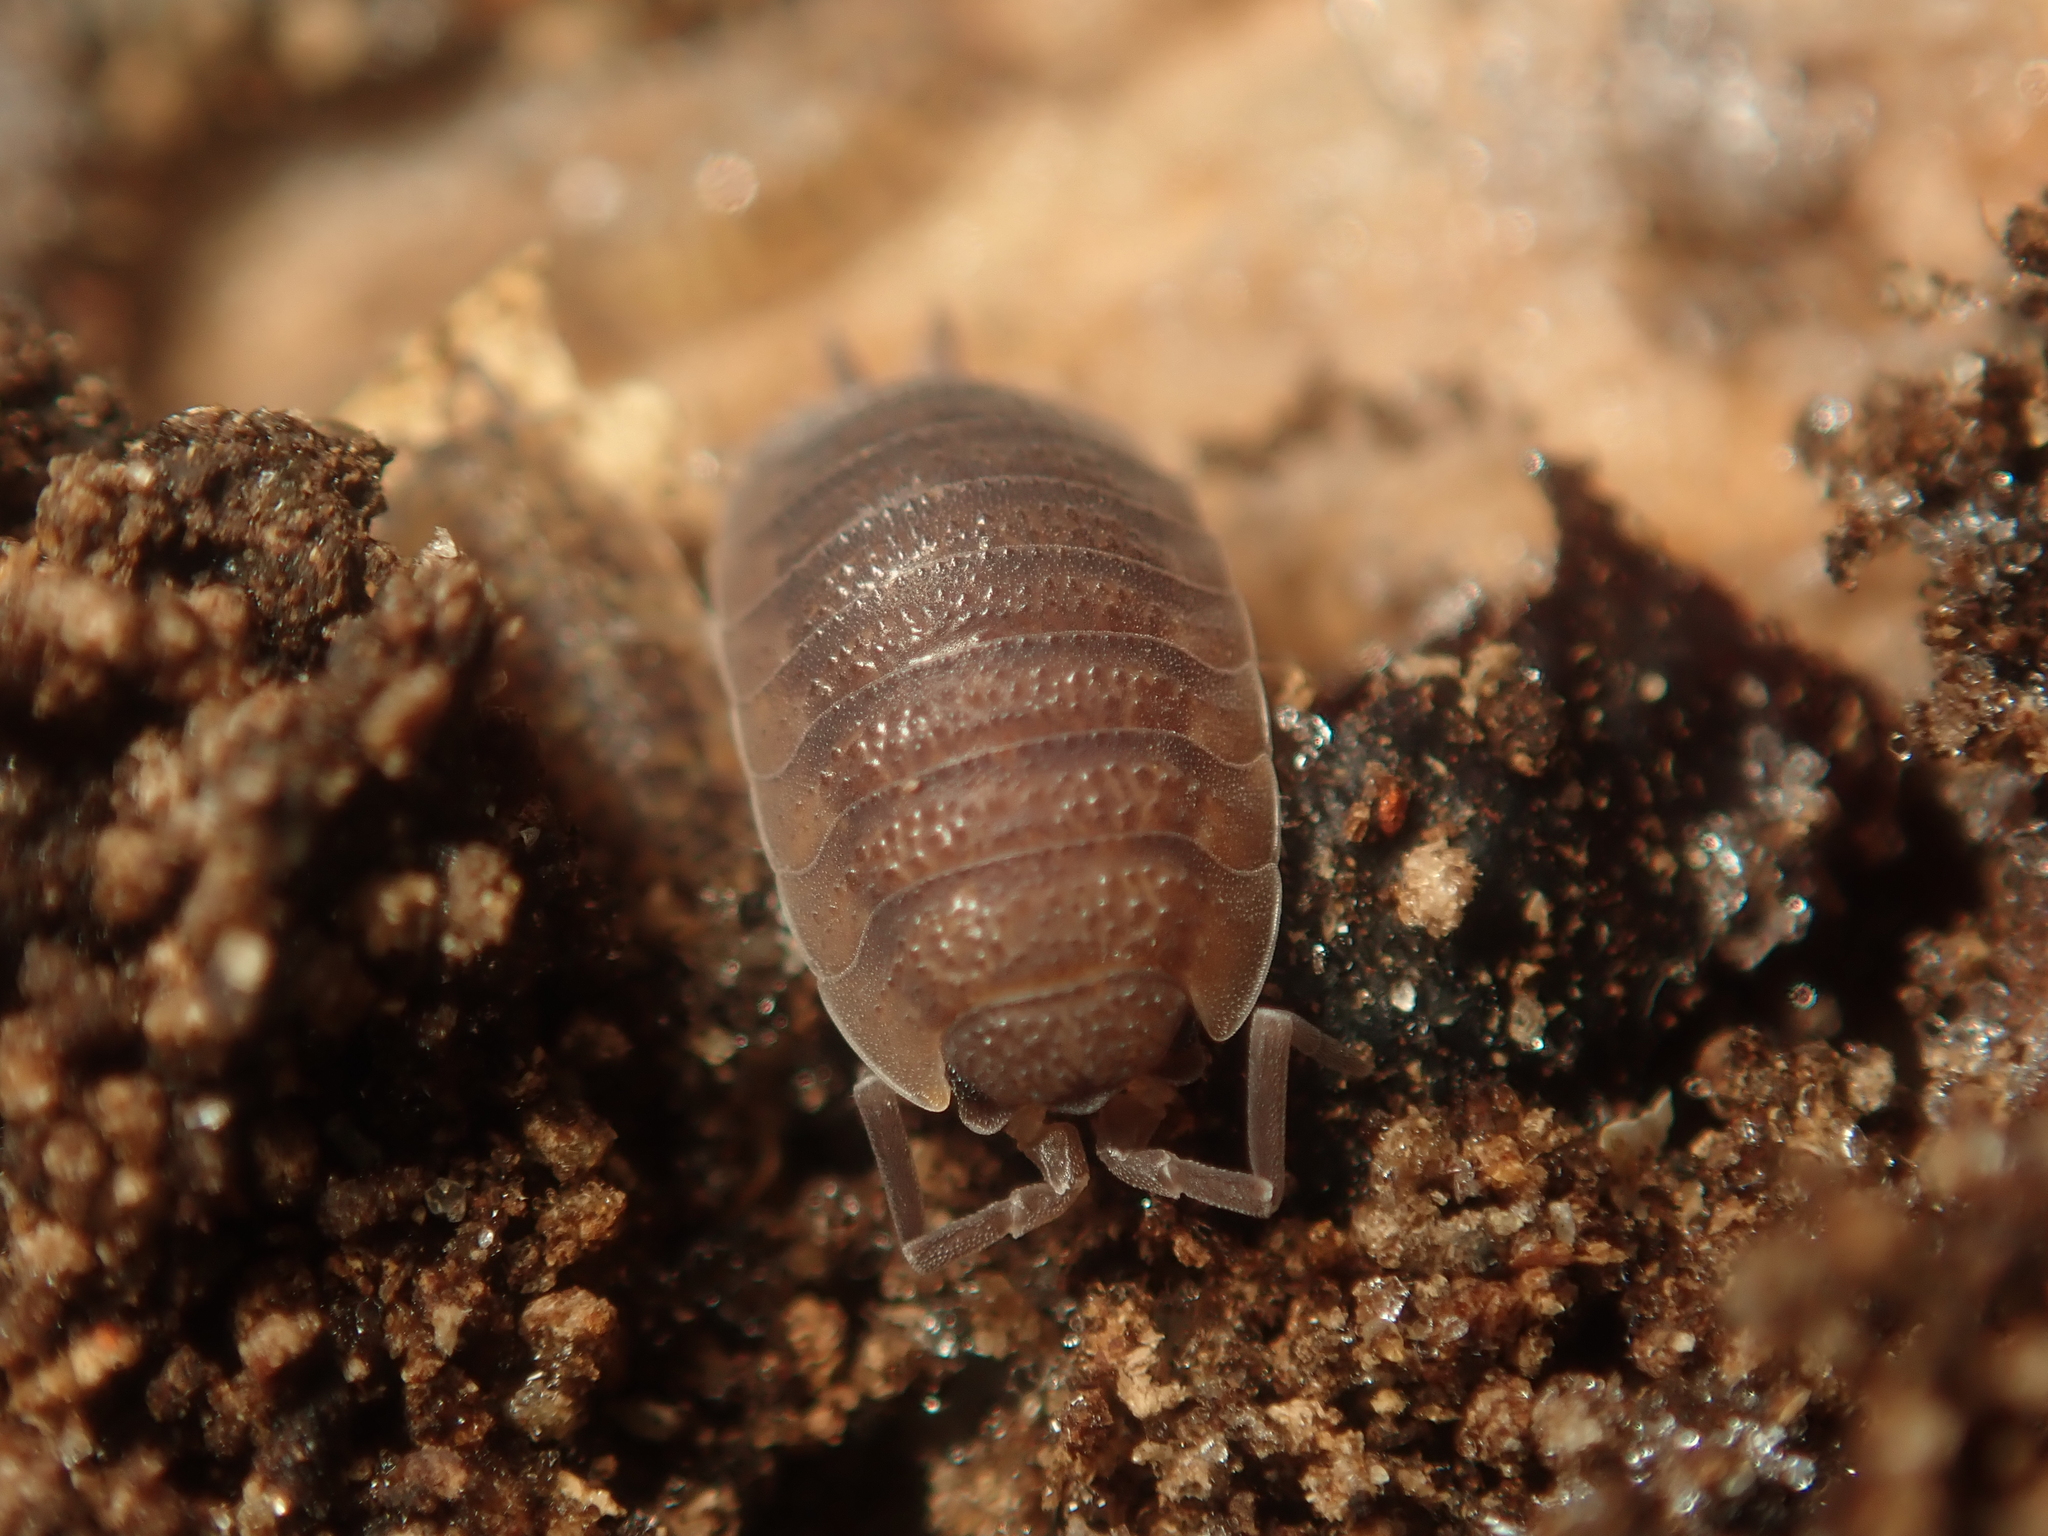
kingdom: Animalia
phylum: Arthropoda
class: Malacostraca
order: Isopoda
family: Porcellionidae
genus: Porcellio
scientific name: Porcellio scaber
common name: Common rough woodlouse
